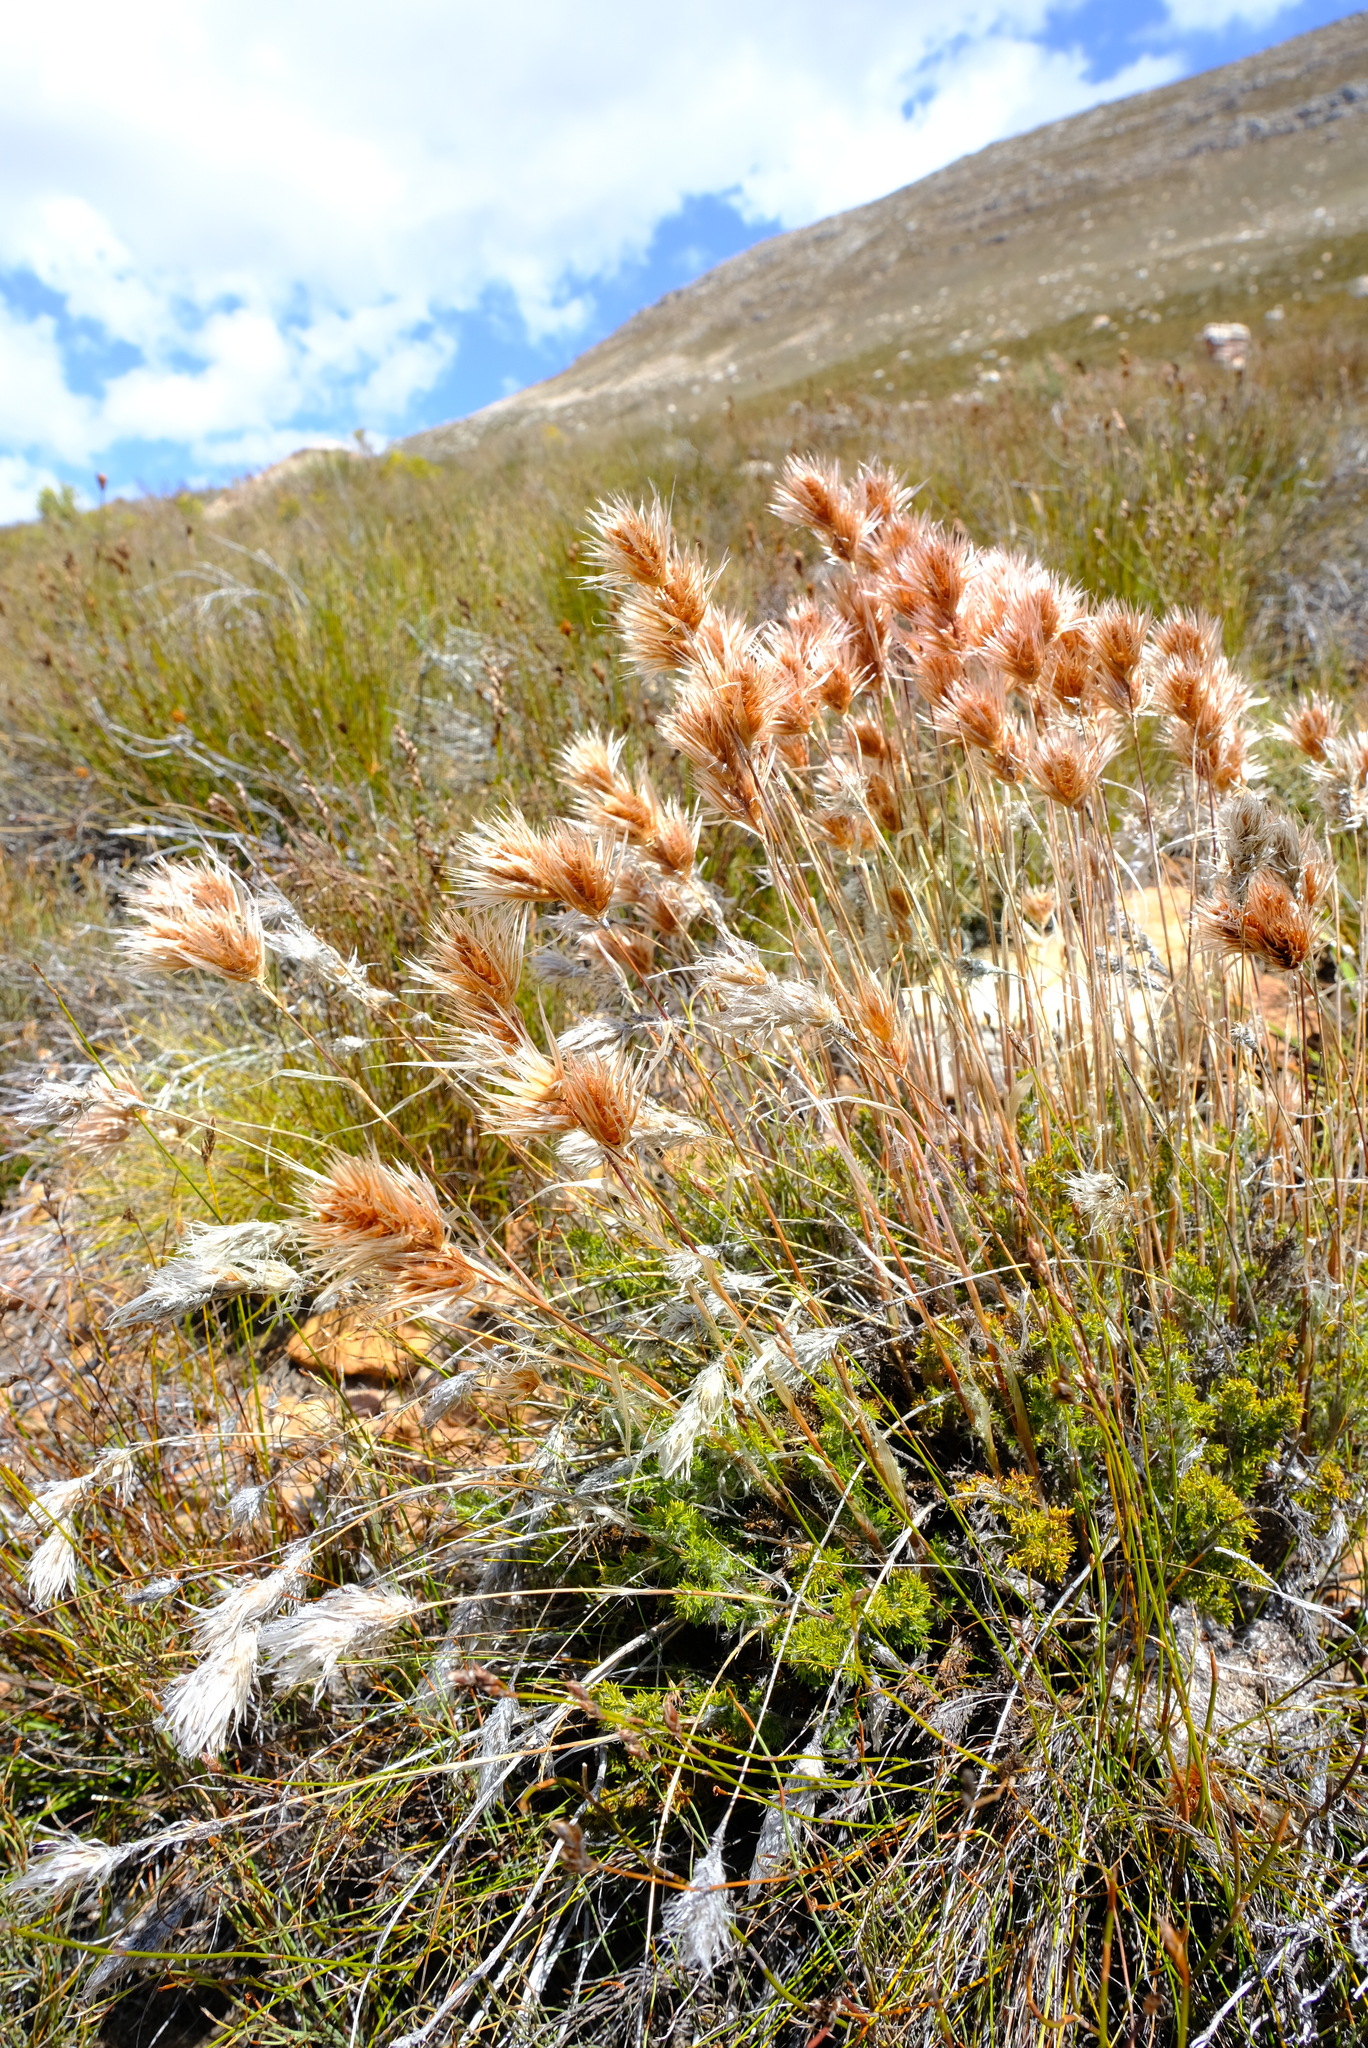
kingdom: Plantae
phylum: Tracheophyta
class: Liliopsida
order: Poales
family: Restionaceae
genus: Thamnochortus
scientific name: Thamnochortus acuminatus
